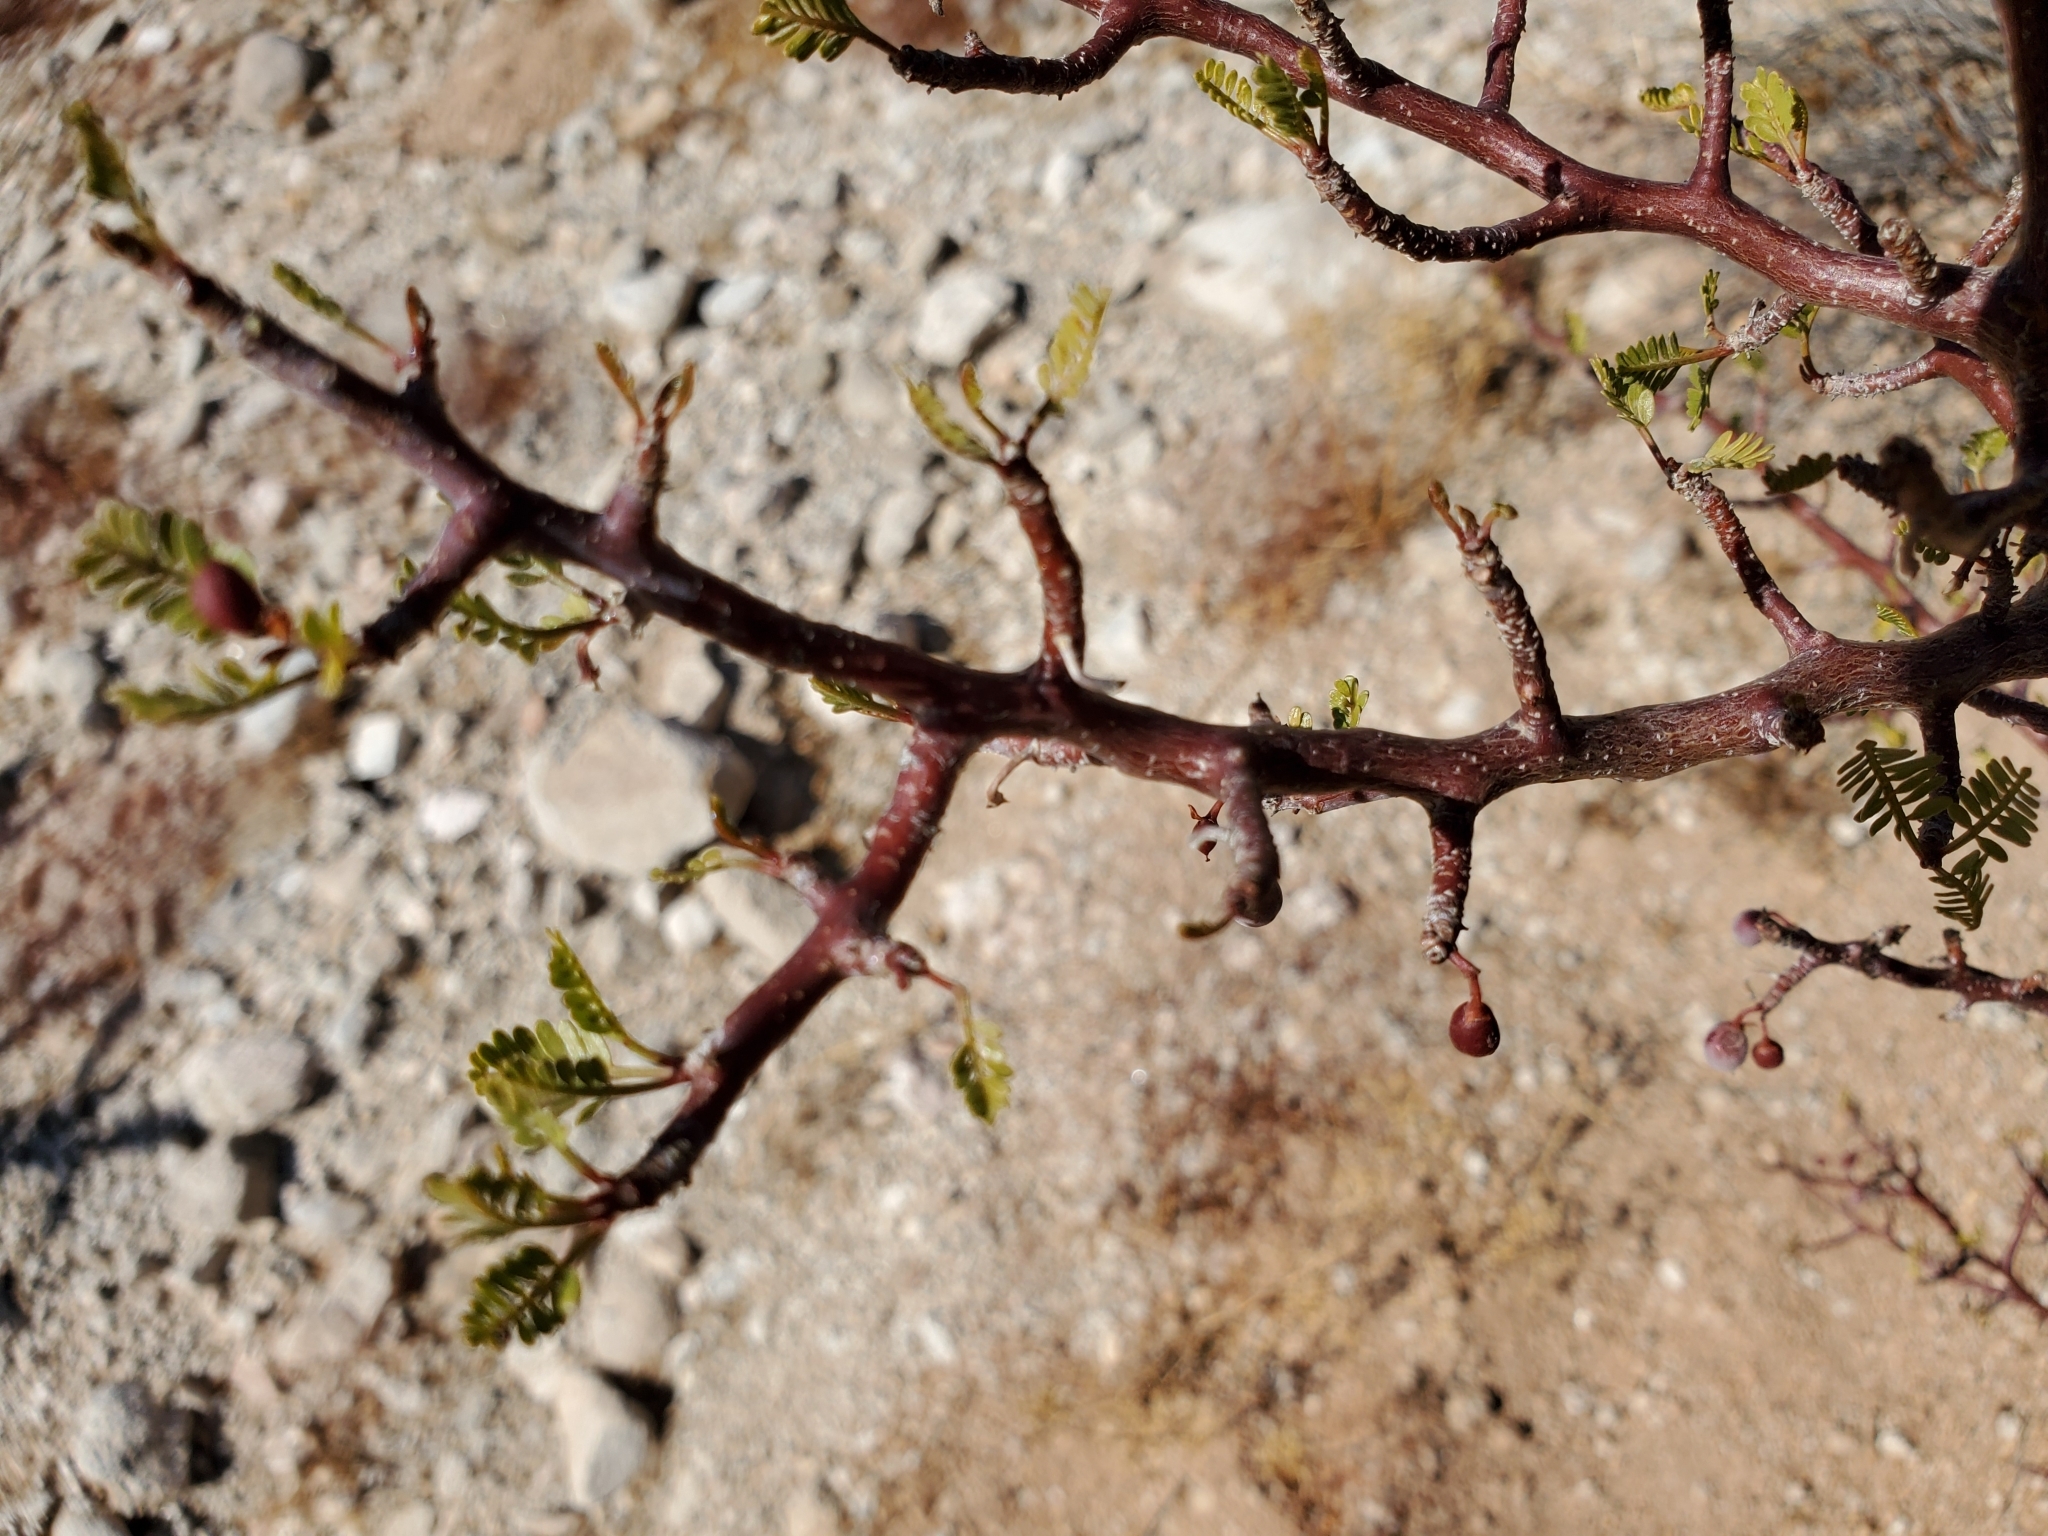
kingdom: Plantae
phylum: Tracheophyta
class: Magnoliopsida
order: Sapindales
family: Burseraceae
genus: Bursera
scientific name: Bursera microphylla
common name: Elephant tree
